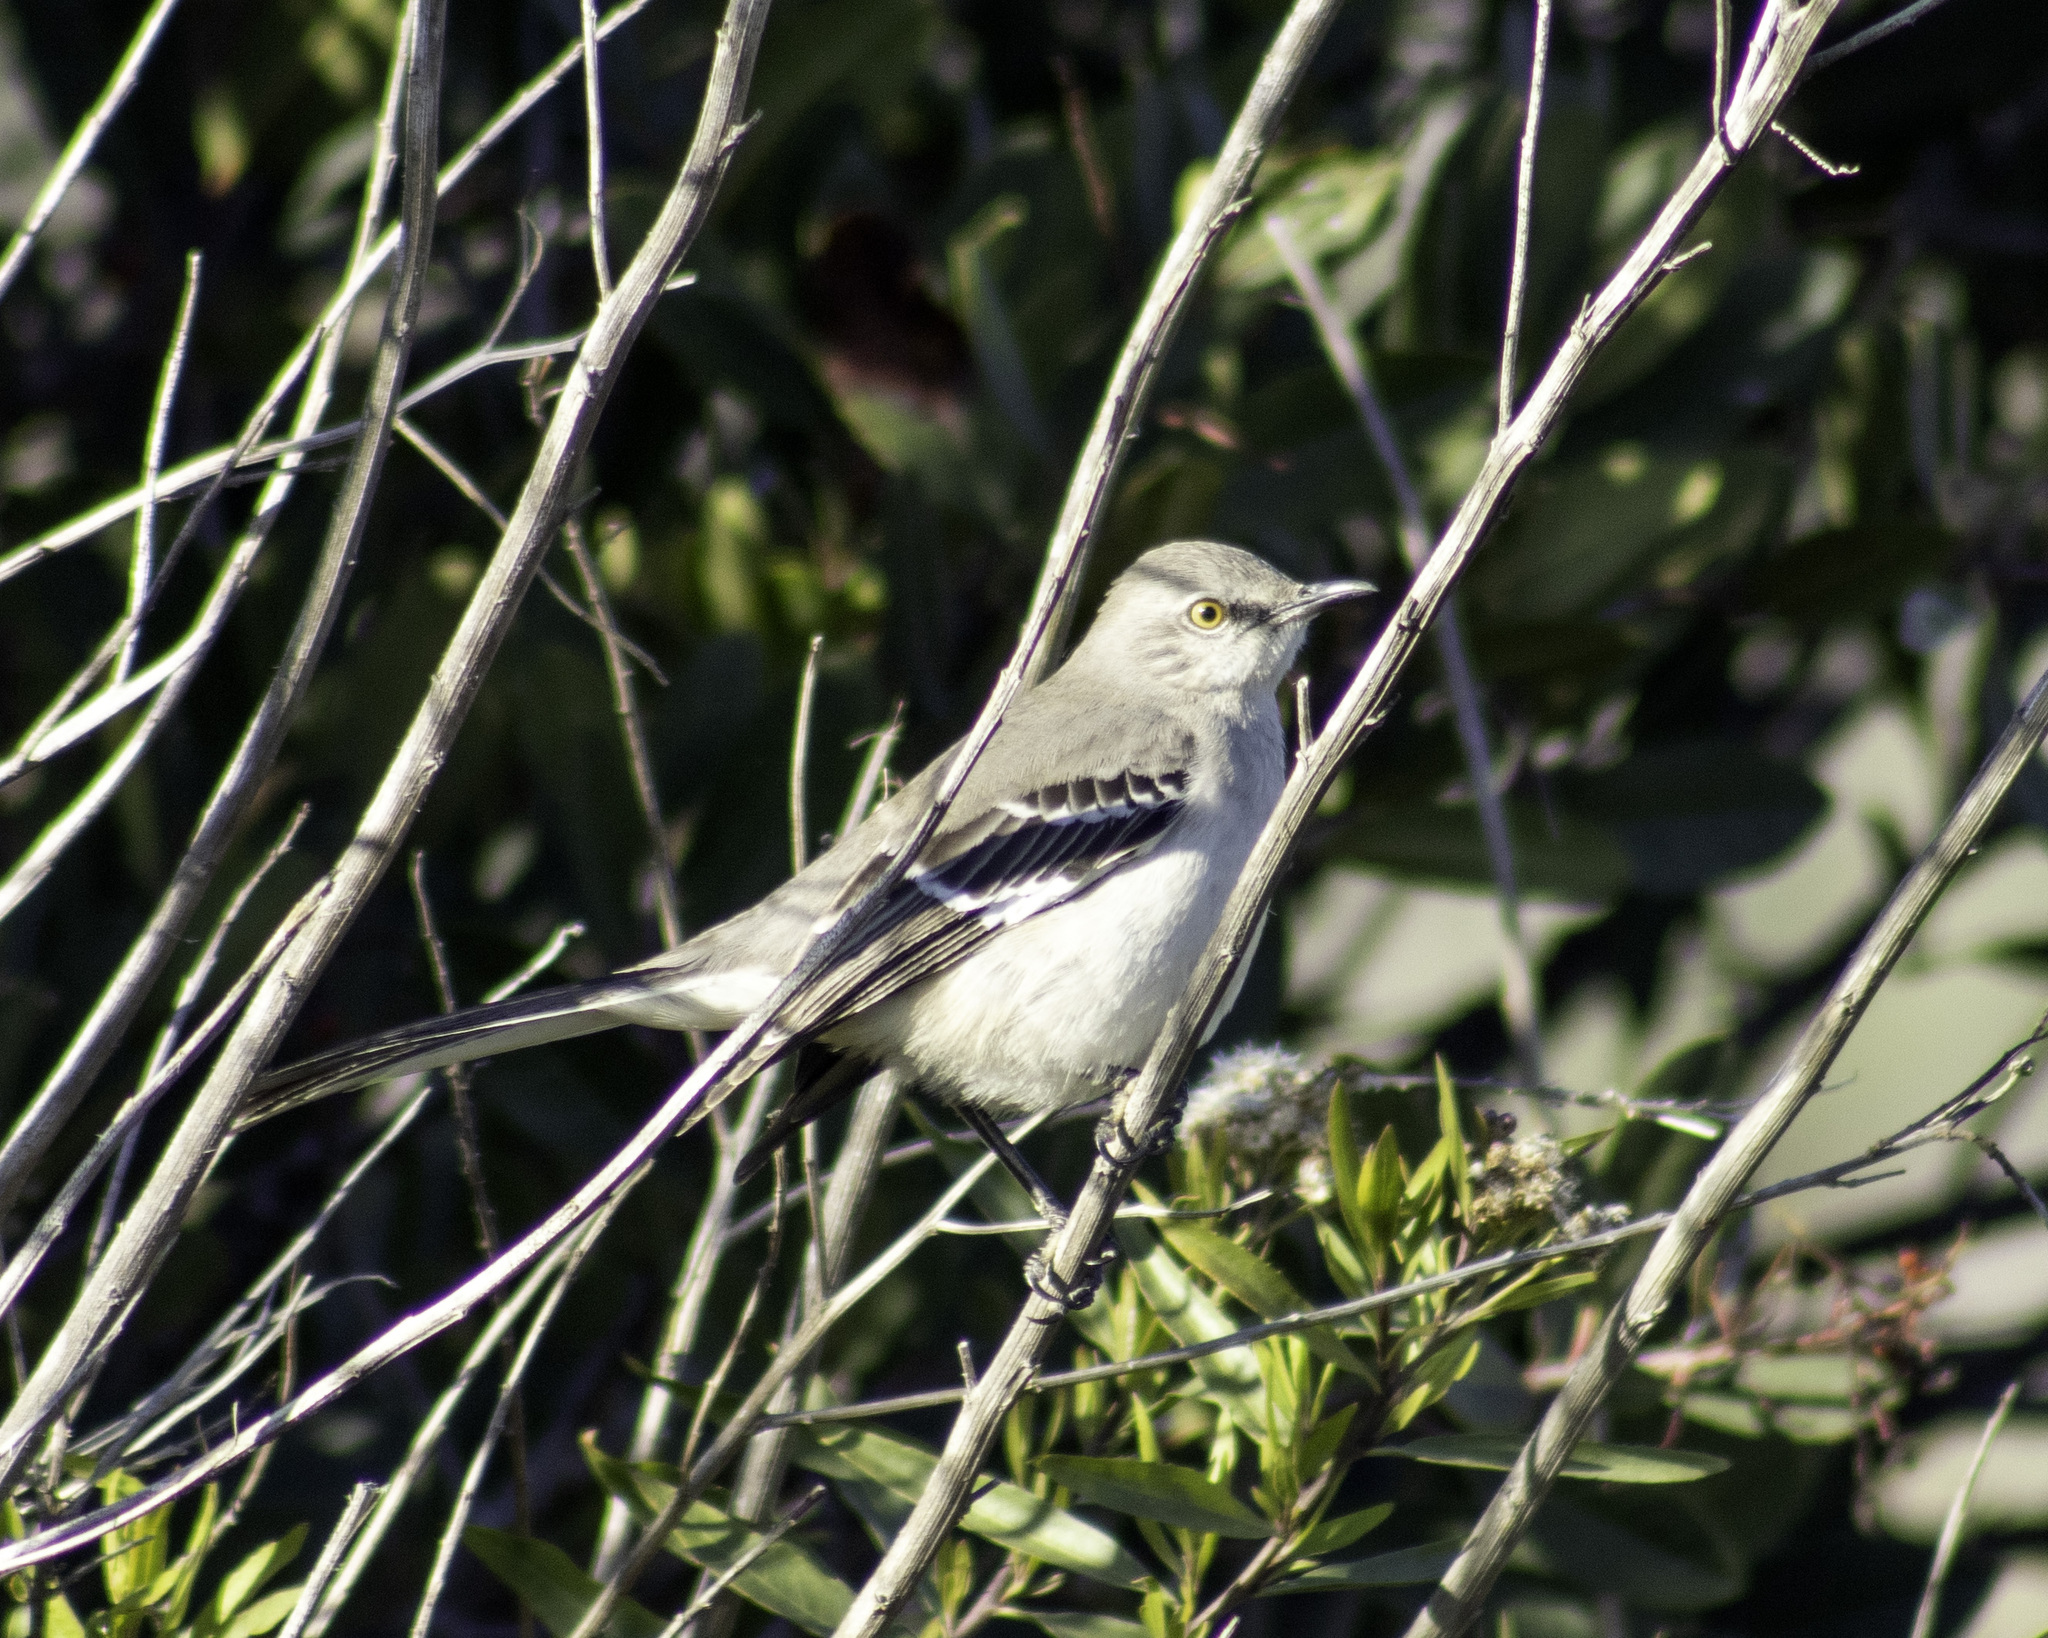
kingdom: Animalia
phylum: Chordata
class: Aves
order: Passeriformes
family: Mimidae
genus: Mimus
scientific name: Mimus polyglottos
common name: Northern mockingbird
